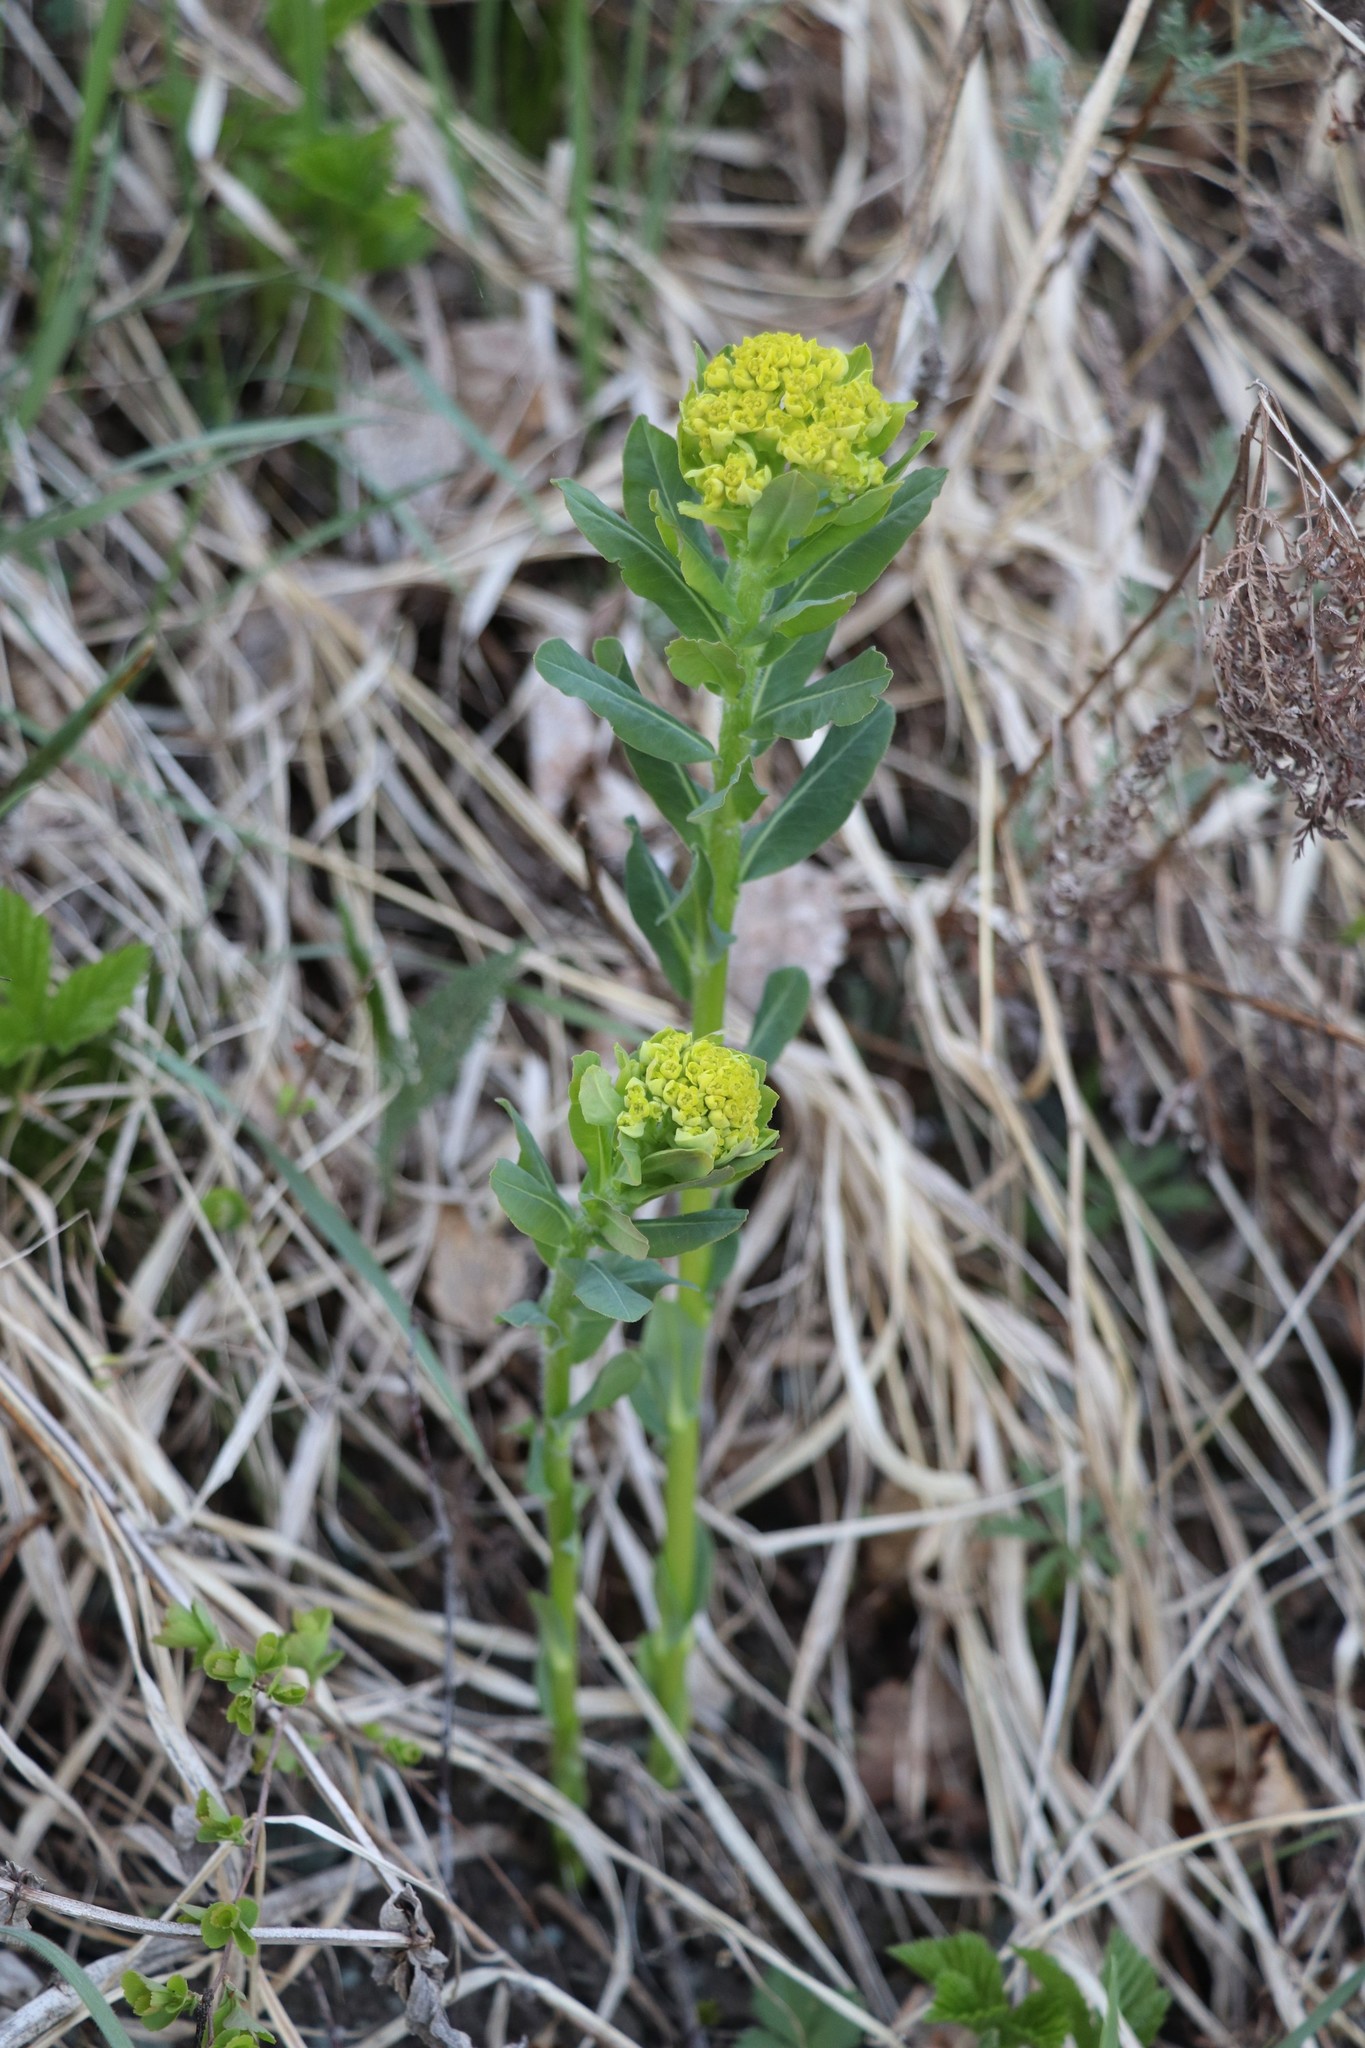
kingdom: Plantae
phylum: Tracheophyta
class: Magnoliopsida
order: Malpighiales
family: Euphorbiaceae
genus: Euphorbia
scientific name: Euphorbia pilosa
